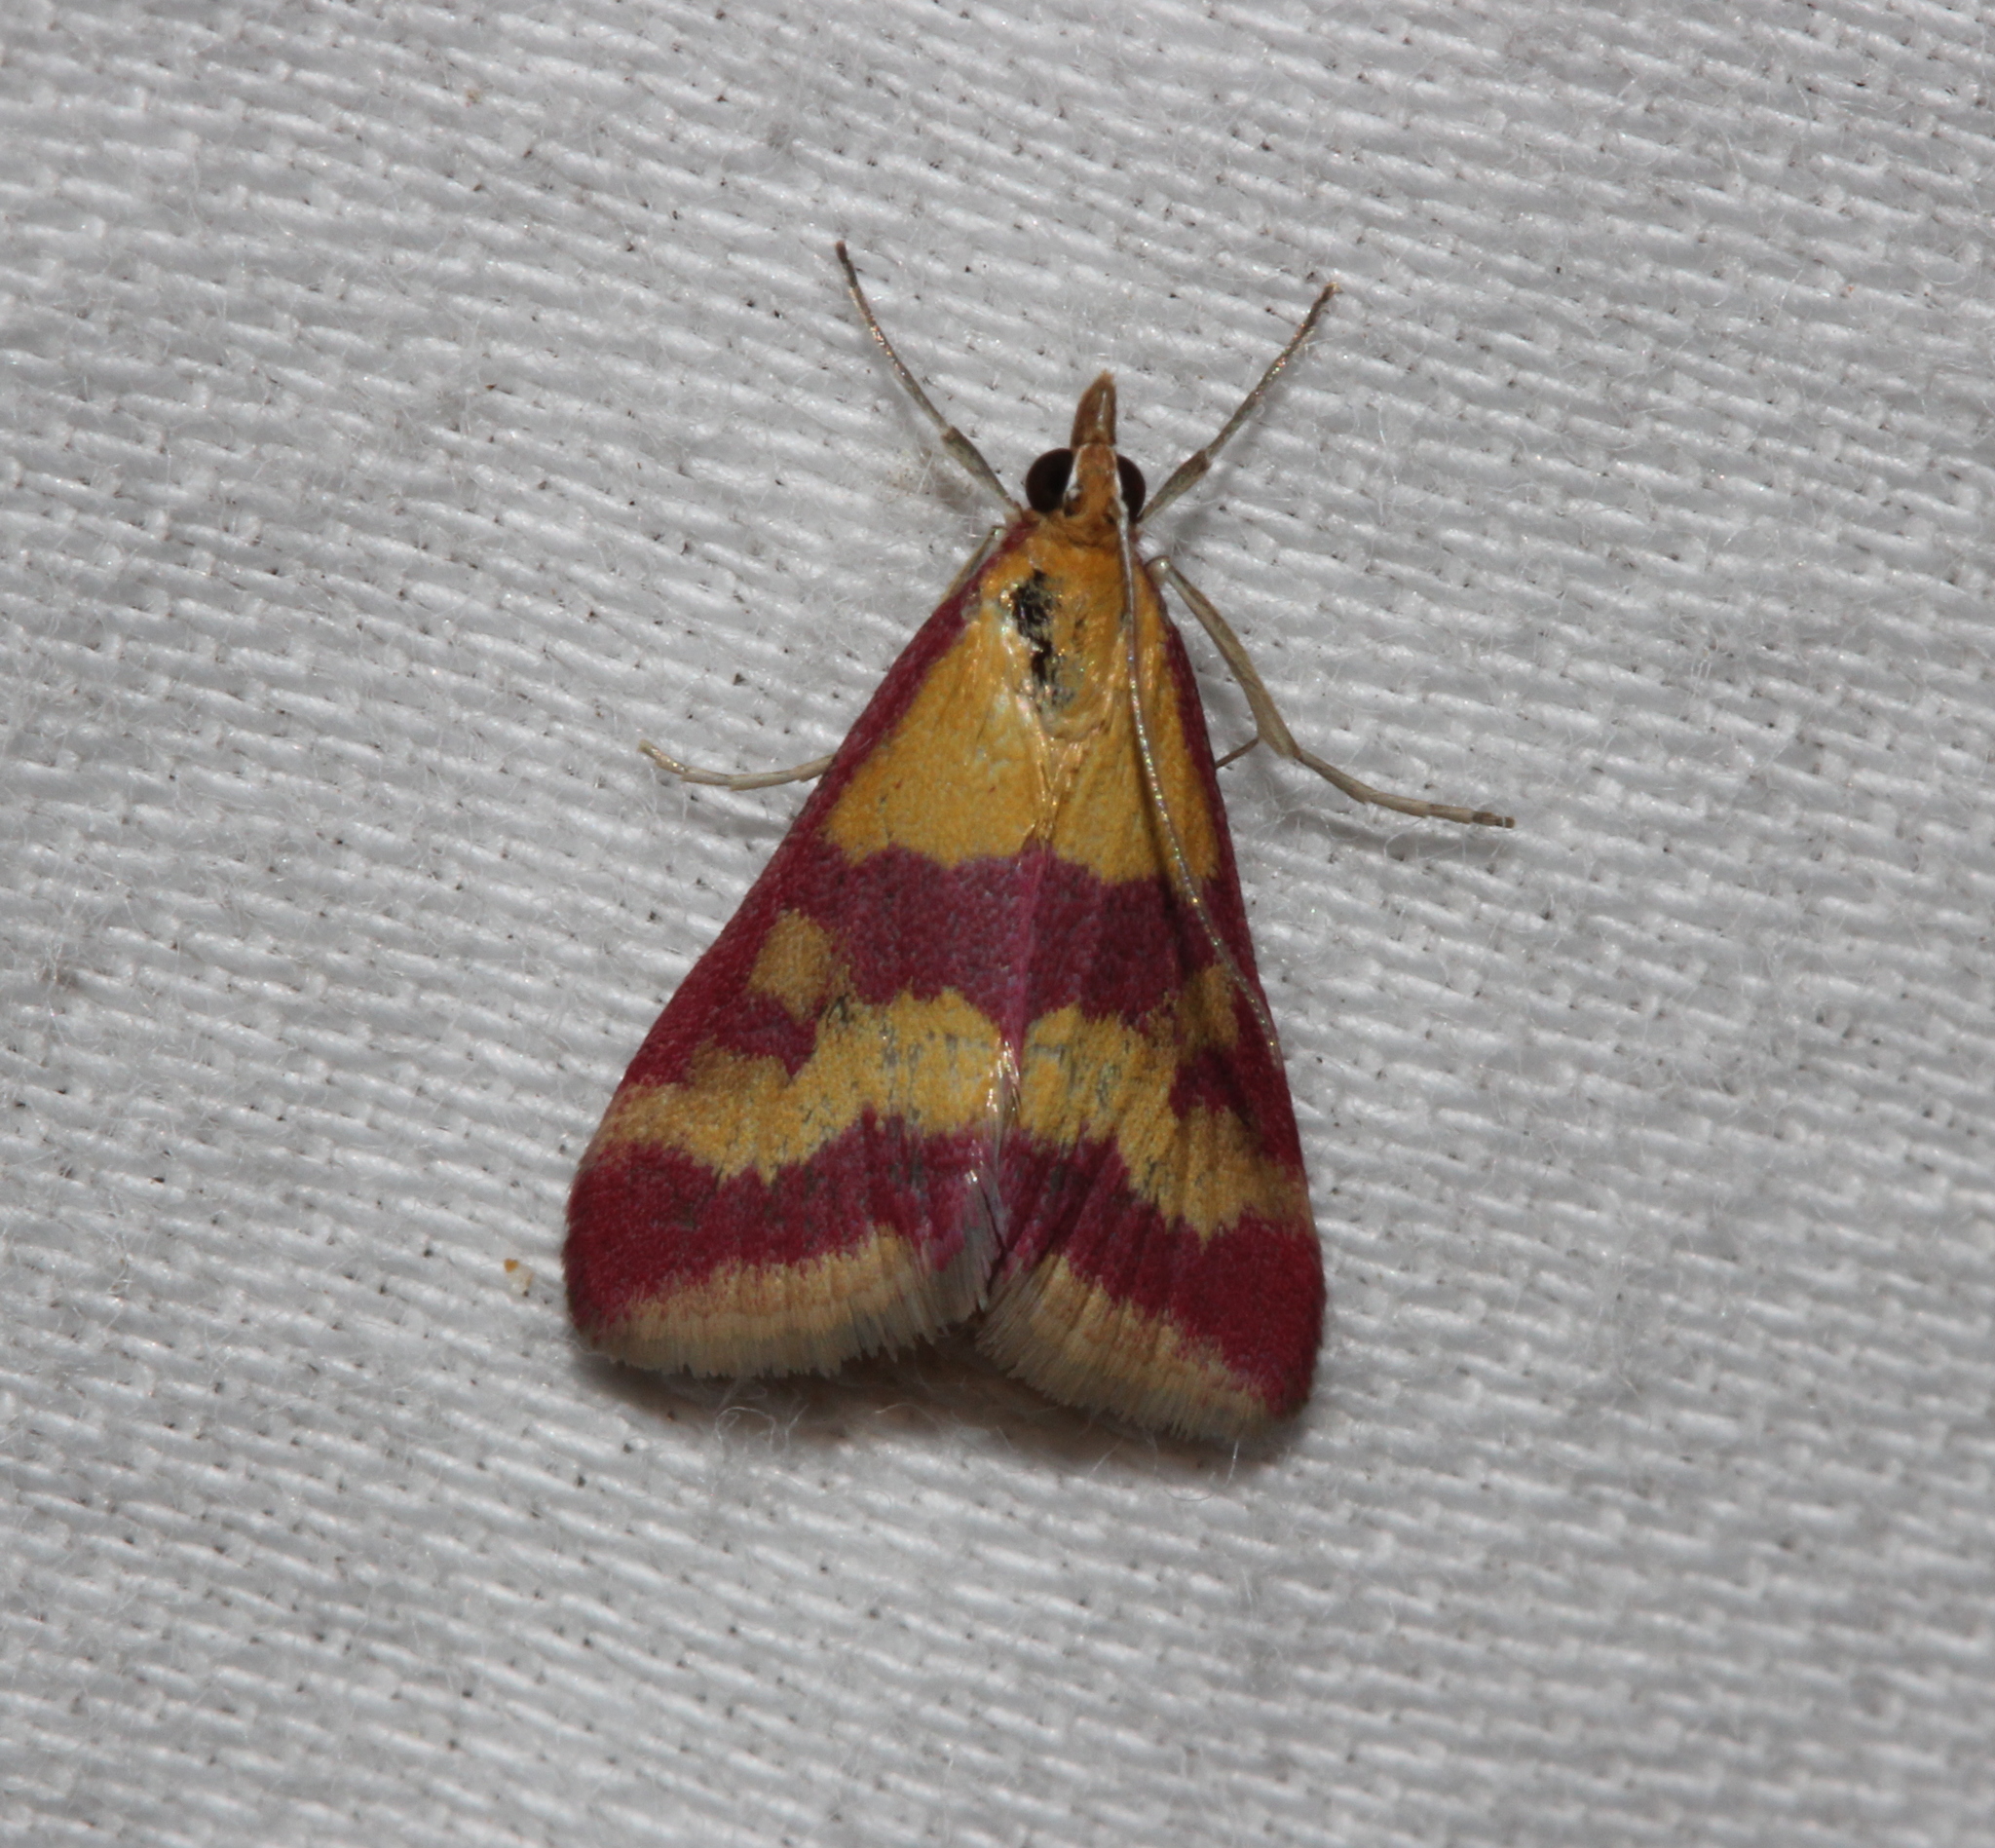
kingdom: Animalia
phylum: Arthropoda
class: Insecta
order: Lepidoptera
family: Crambidae
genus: Pyrausta
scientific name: Pyrausta sanguinalis
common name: Scarce crimson and gold
